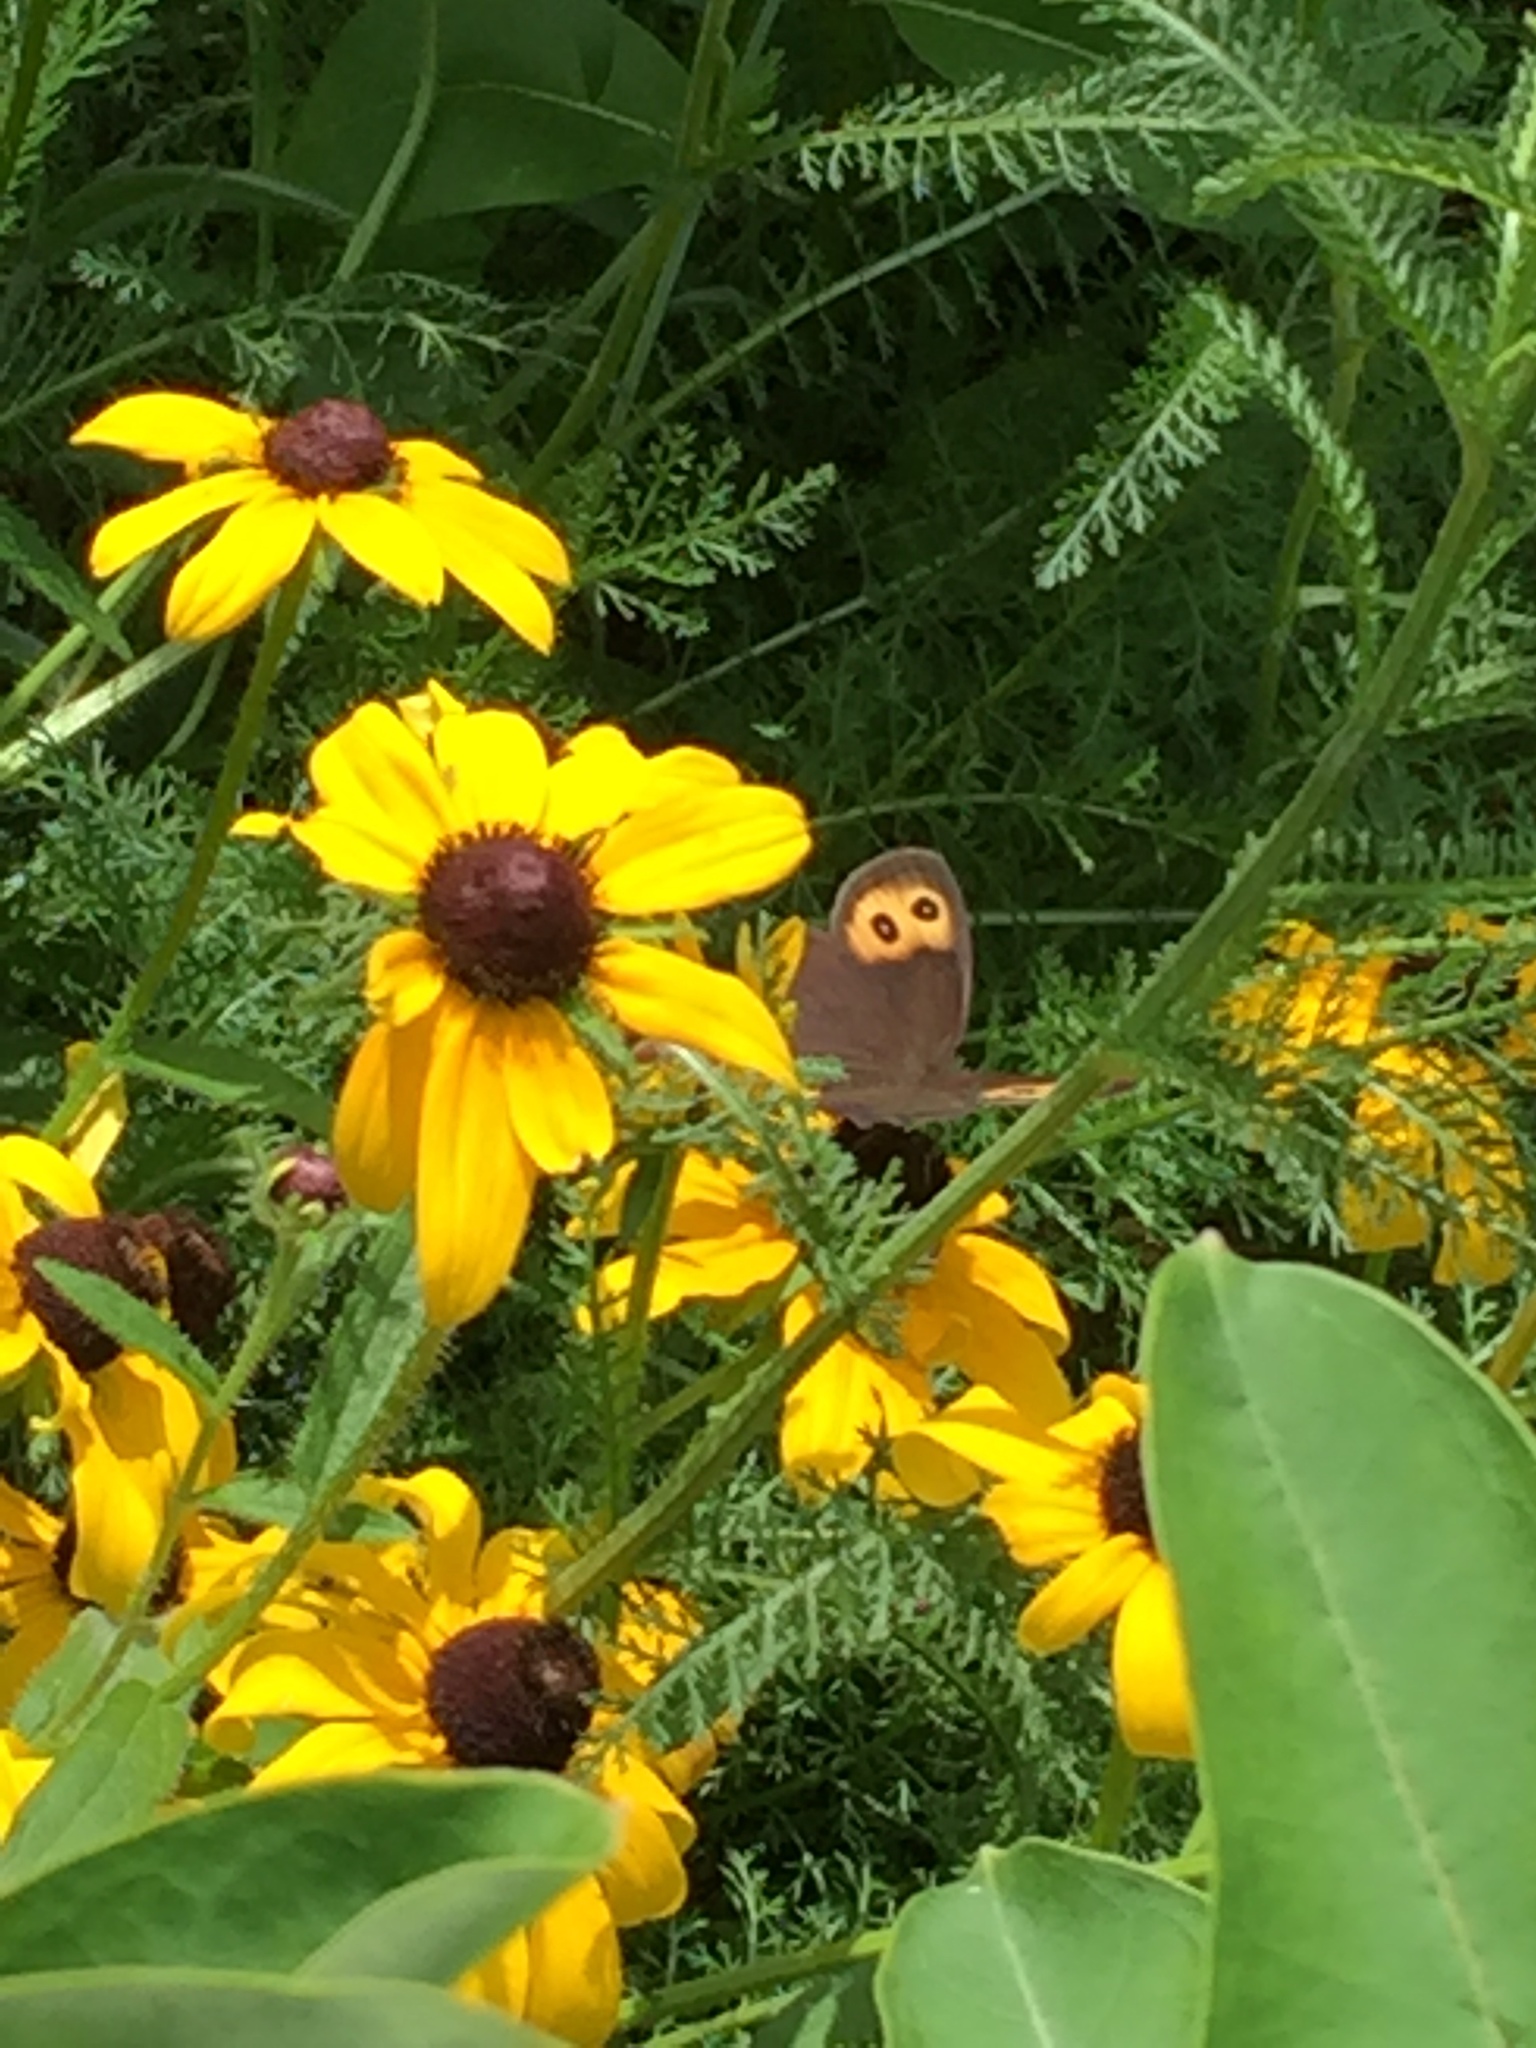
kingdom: Animalia
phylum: Arthropoda
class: Insecta
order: Lepidoptera
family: Nymphalidae
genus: Cercyonis
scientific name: Cercyonis pegala
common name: Common wood-nymph
